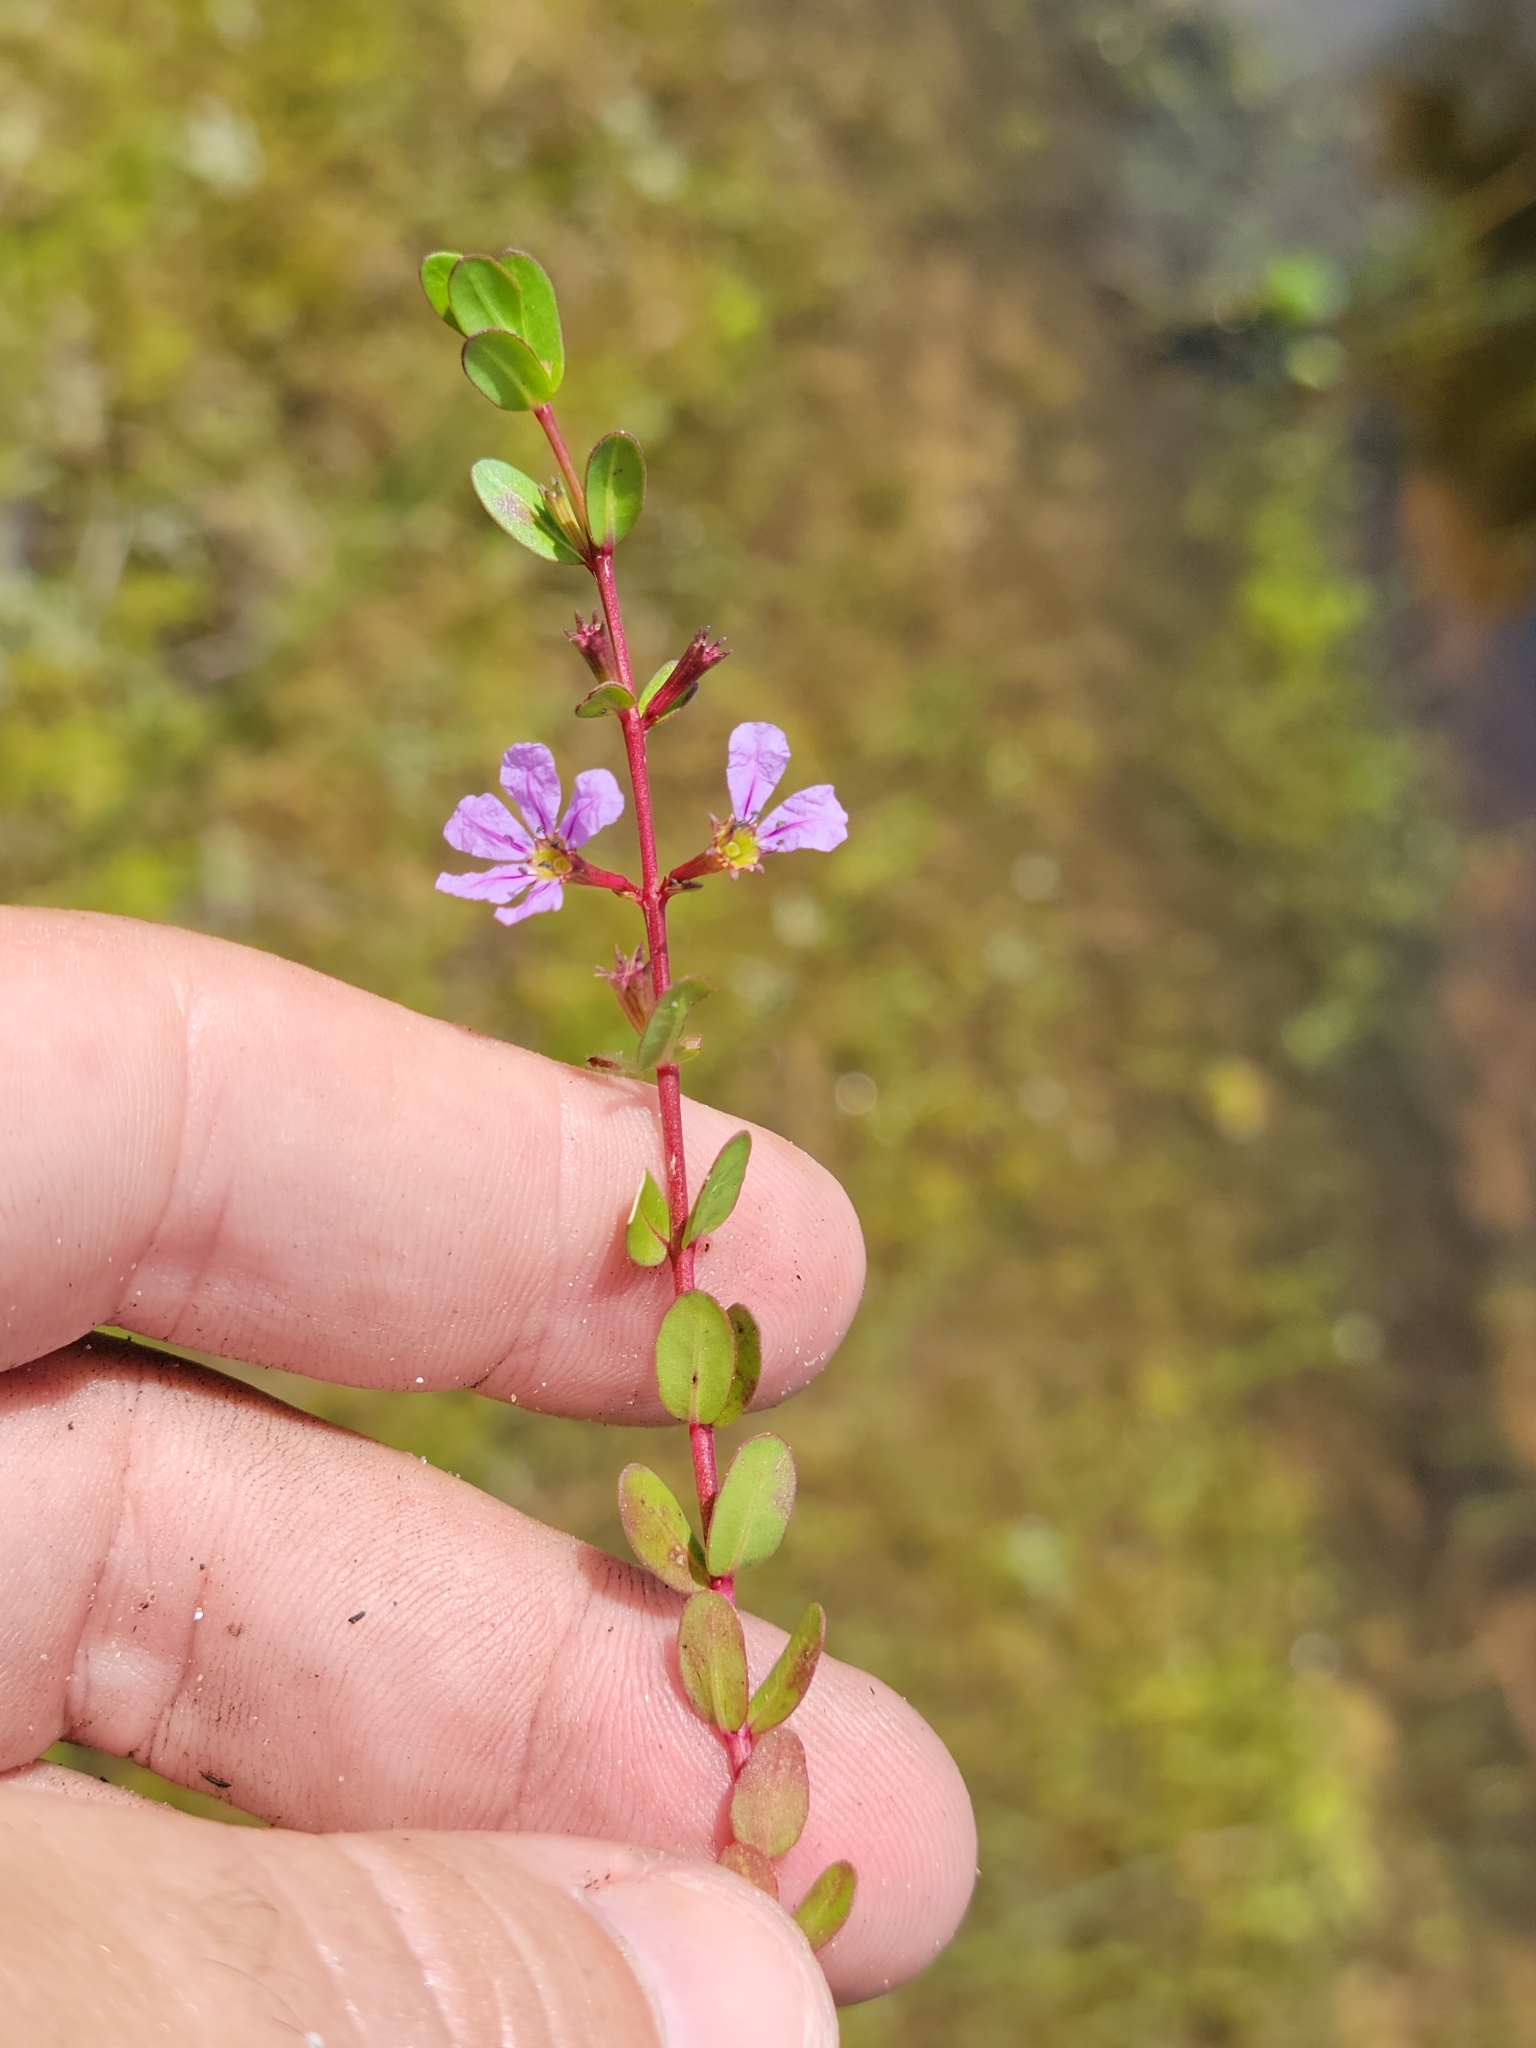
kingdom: Plantae
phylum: Tracheophyta
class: Magnoliopsida
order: Myrtales
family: Lythraceae
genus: Cuphea
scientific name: Cuphea strigulosa
